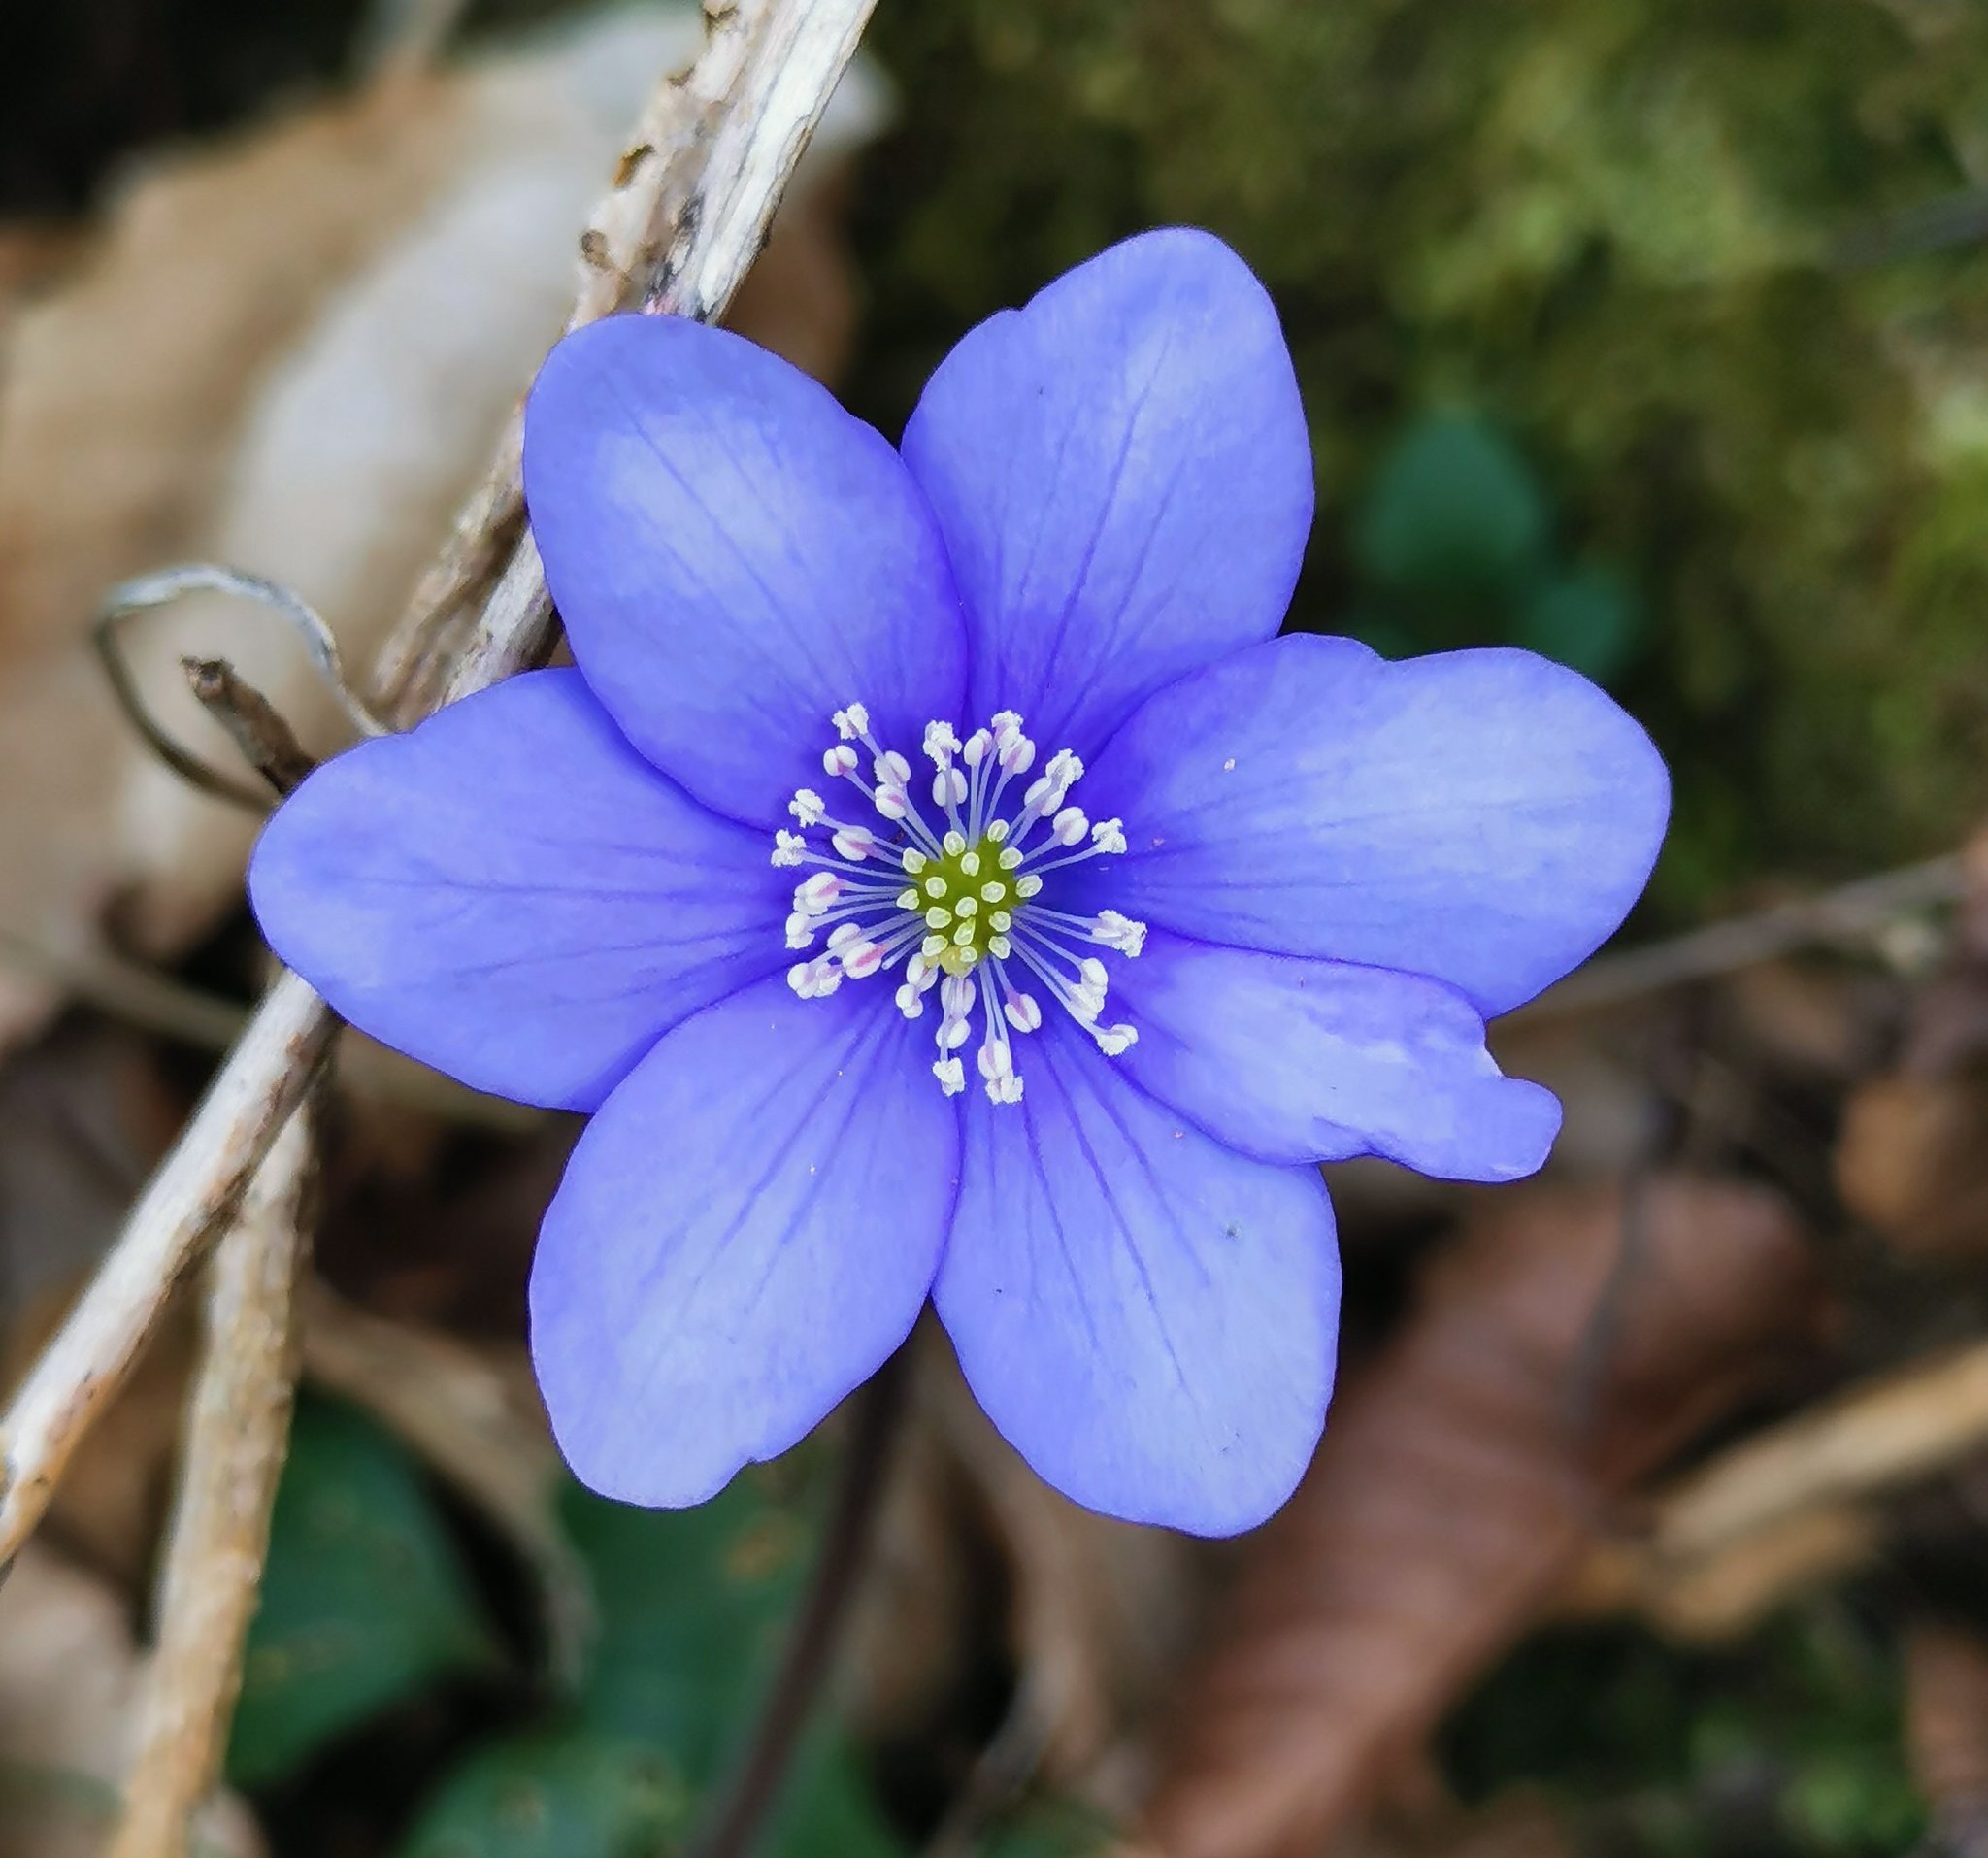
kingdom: Plantae
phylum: Tracheophyta
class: Magnoliopsida
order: Ranunculales
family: Ranunculaceae
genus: Hepatica
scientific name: Hepatica nobilis
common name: Liverleaf
